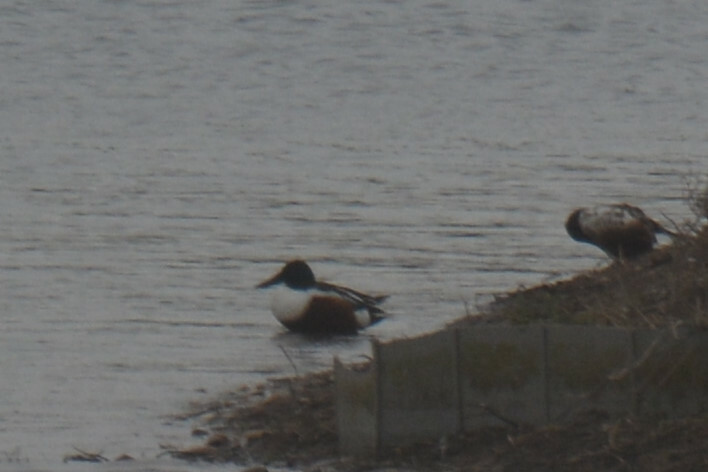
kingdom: Animalia
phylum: Chordata
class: Aves
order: Anseriformes
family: Anatidae
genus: Spatula
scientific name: Spatula clypeata
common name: Northern shoveler
